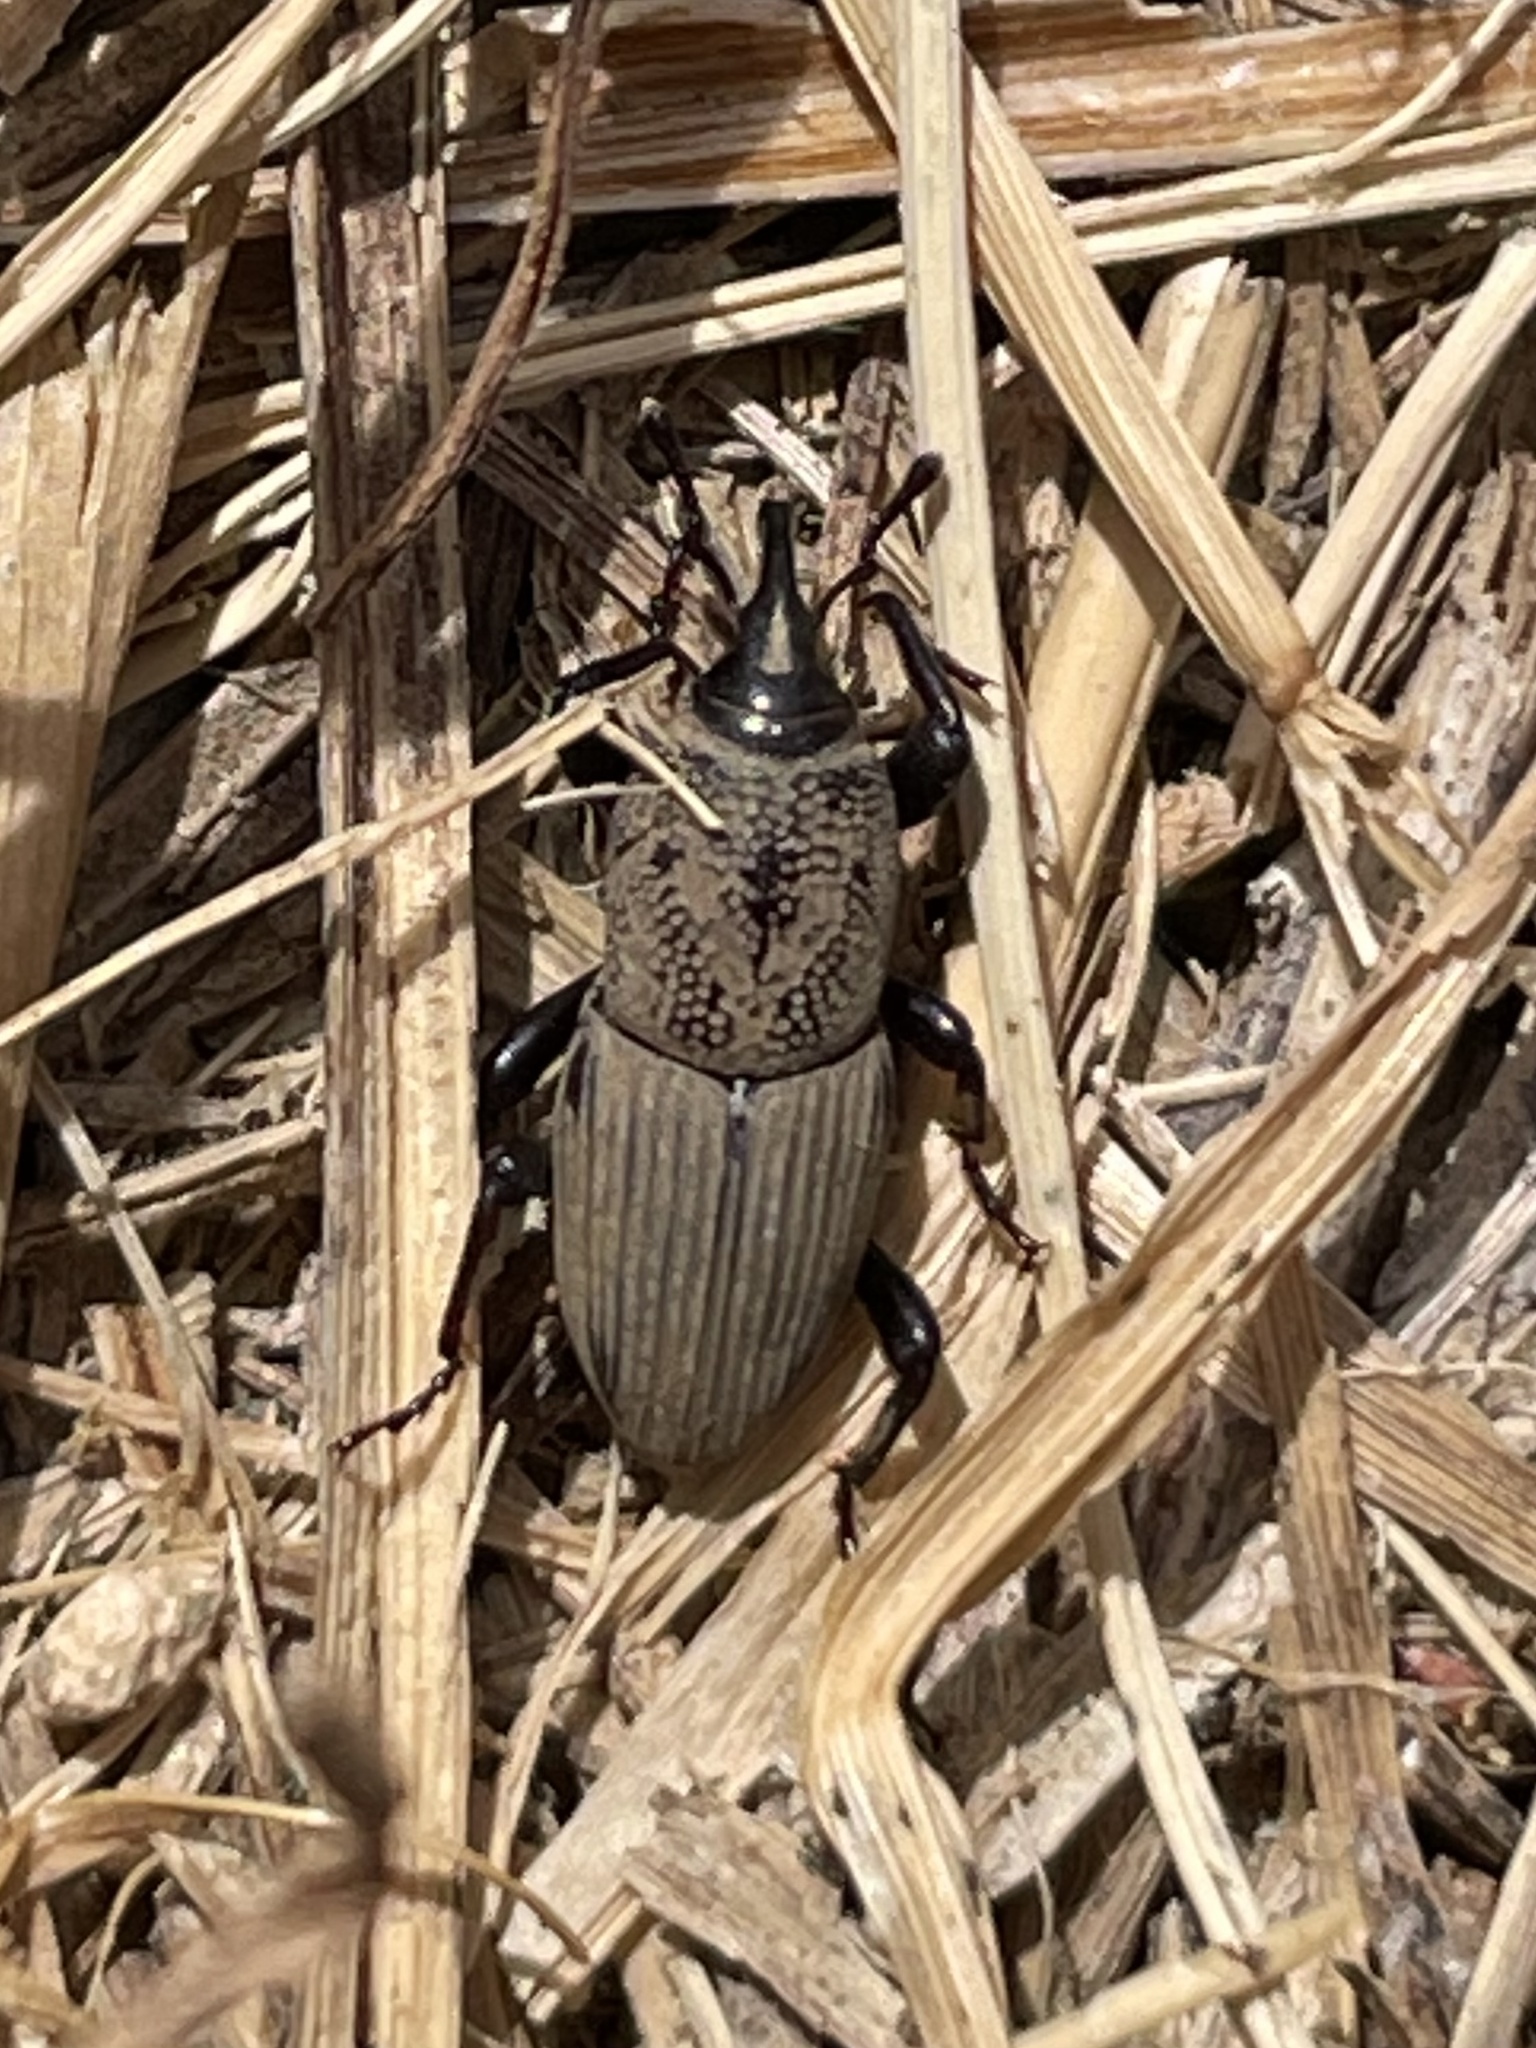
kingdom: Animalia
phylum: Arthropoda
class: Insecta
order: Coleoptera
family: Dryophthoridae
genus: Sphenophorus
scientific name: Sphenophorus coesifrons
